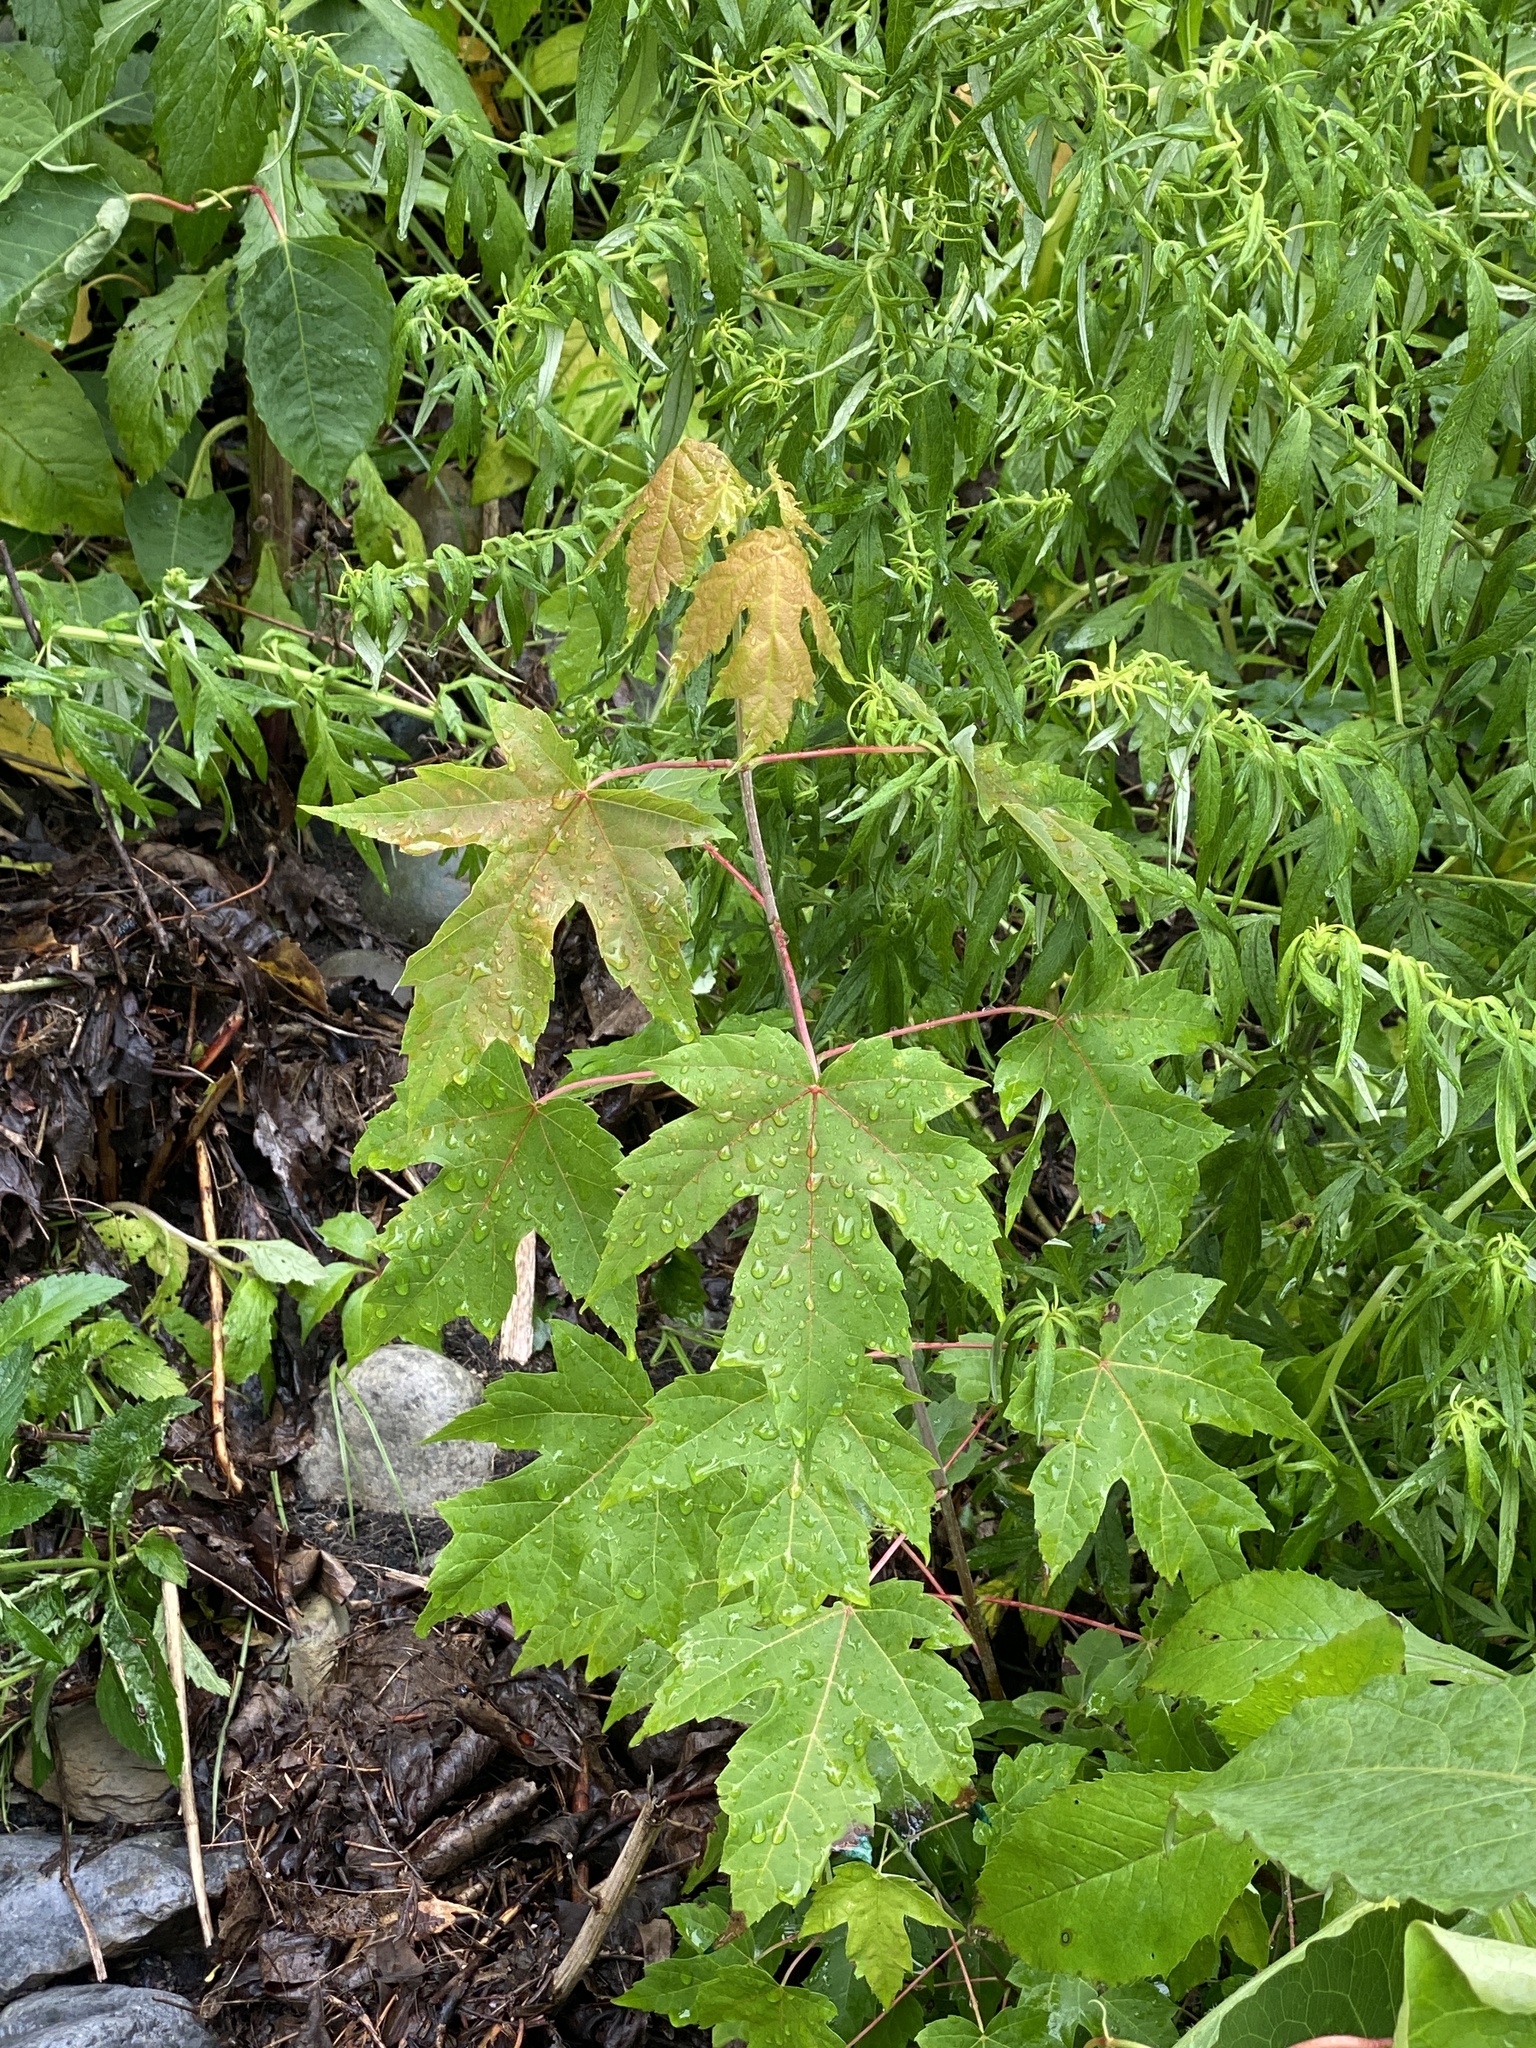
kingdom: Plantae
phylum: Tracheophyta
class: Magnoliopsida
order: Sapindales
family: Sapindaceae
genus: Acer
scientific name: Acer saccharinum
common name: Silver maple
